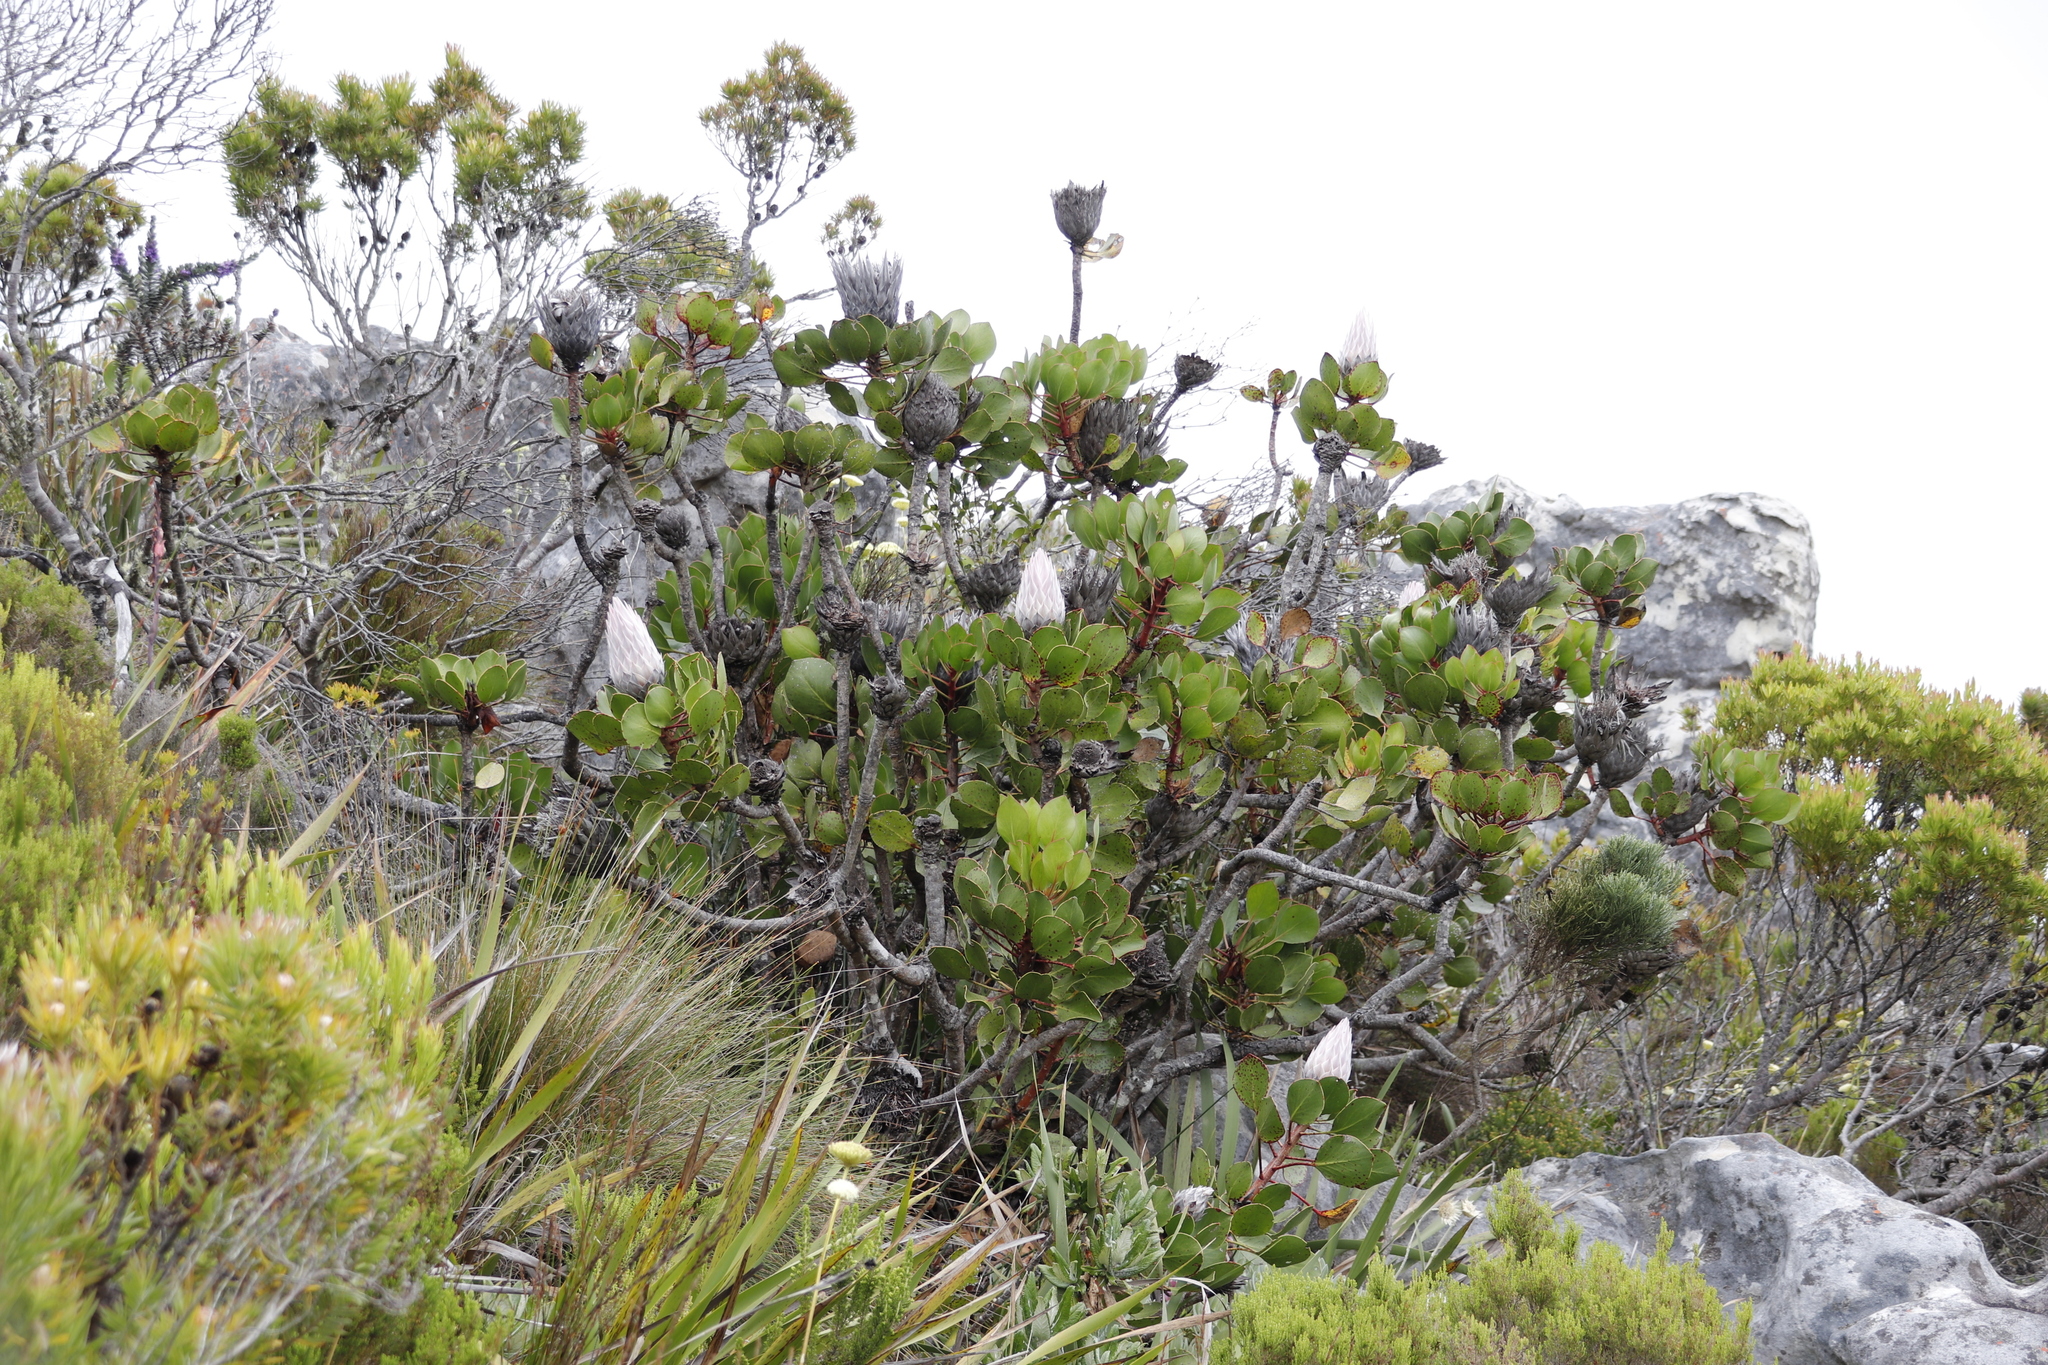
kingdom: Plantae
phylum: Tracheophyta
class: Magnoliopsida
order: Proteales
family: Proteaceae
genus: Protea
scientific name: Protea cynaroides
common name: King protea
